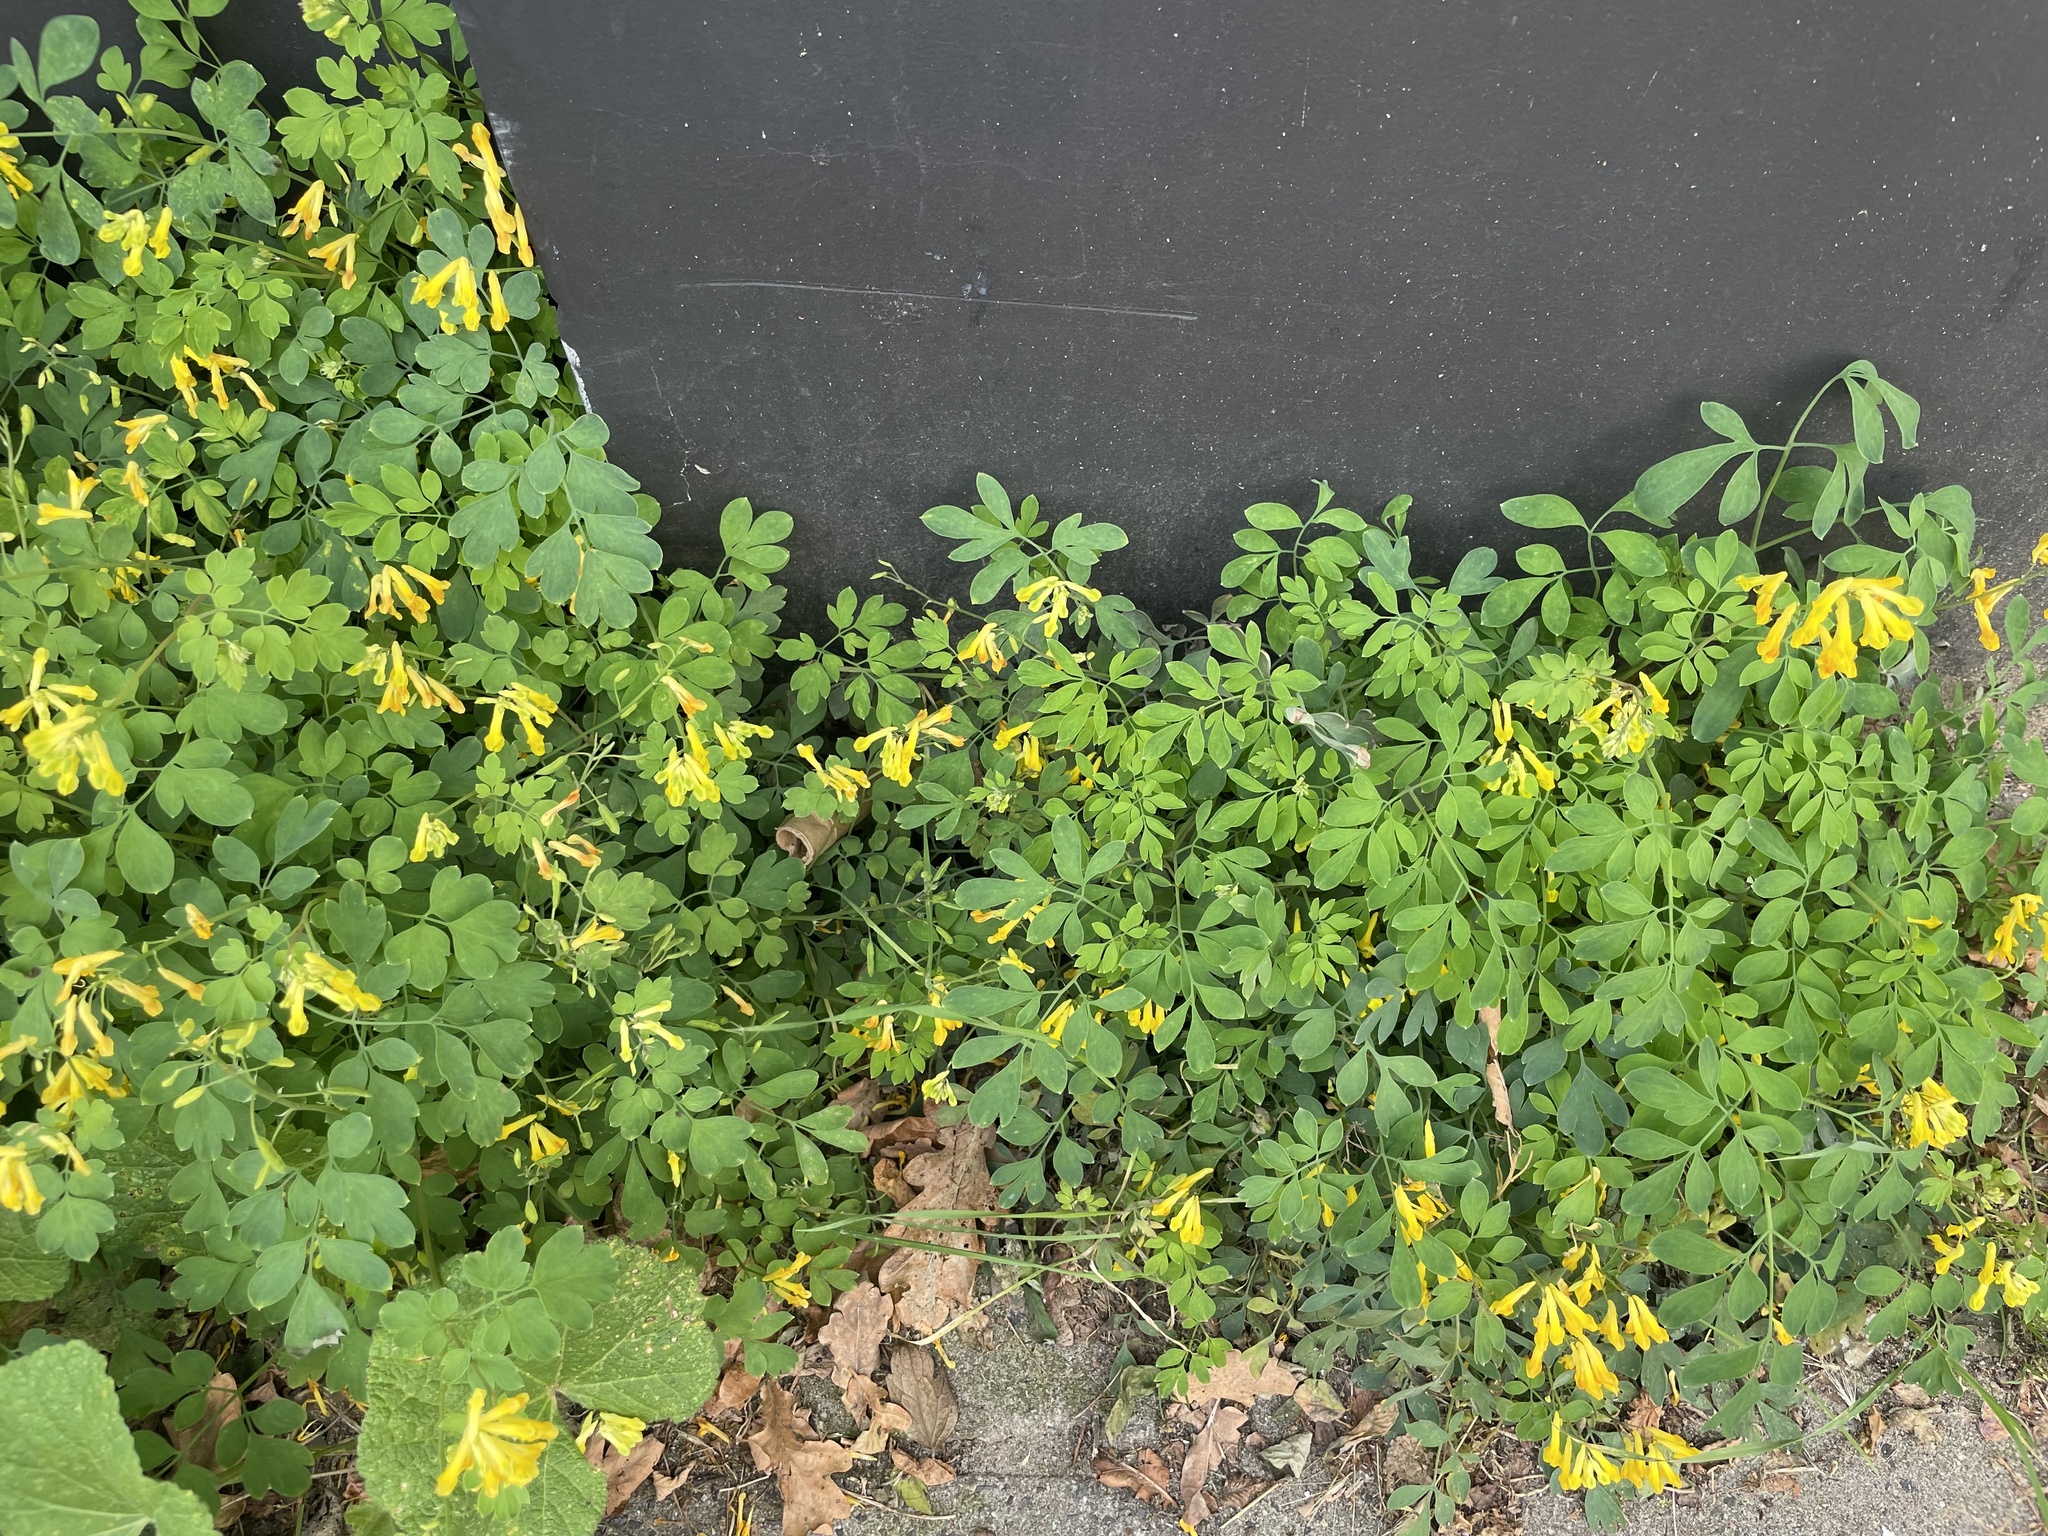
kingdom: Plantae
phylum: Tracheophyta
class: Magnoliopsida
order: Ranunculales
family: Papaveraceae
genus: Pseudofumaria
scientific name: Pseudofumaria lutea
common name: Yellow corydalis
